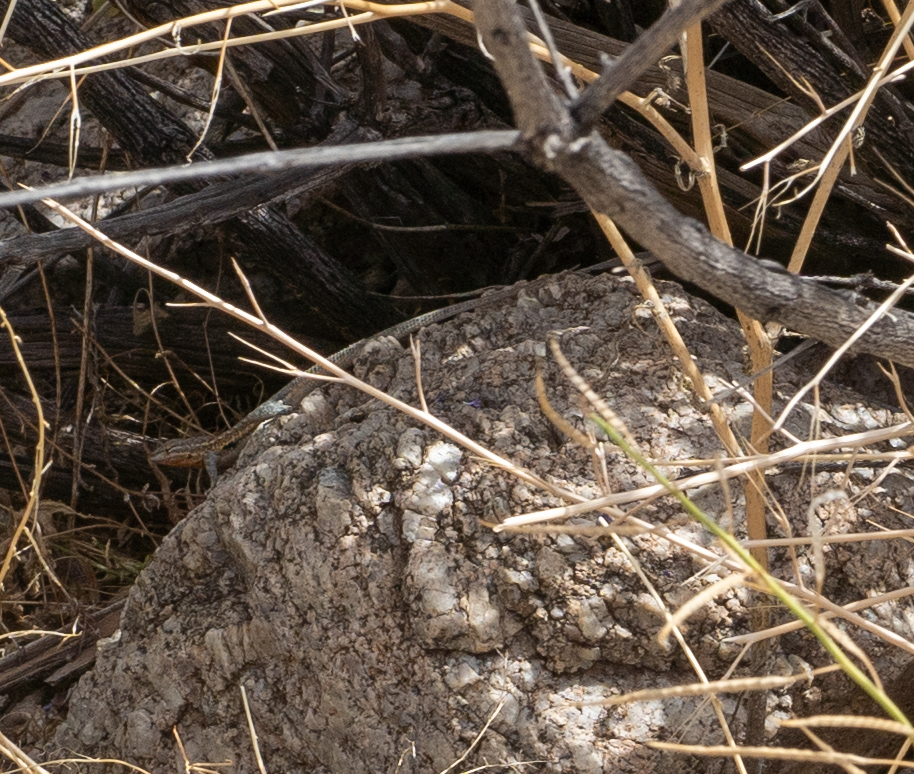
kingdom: Animalia
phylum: Chordata
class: Squamata
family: Phrynosomatidae
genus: Uta
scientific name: Uta stansburiana
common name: Side-blotched lizard
